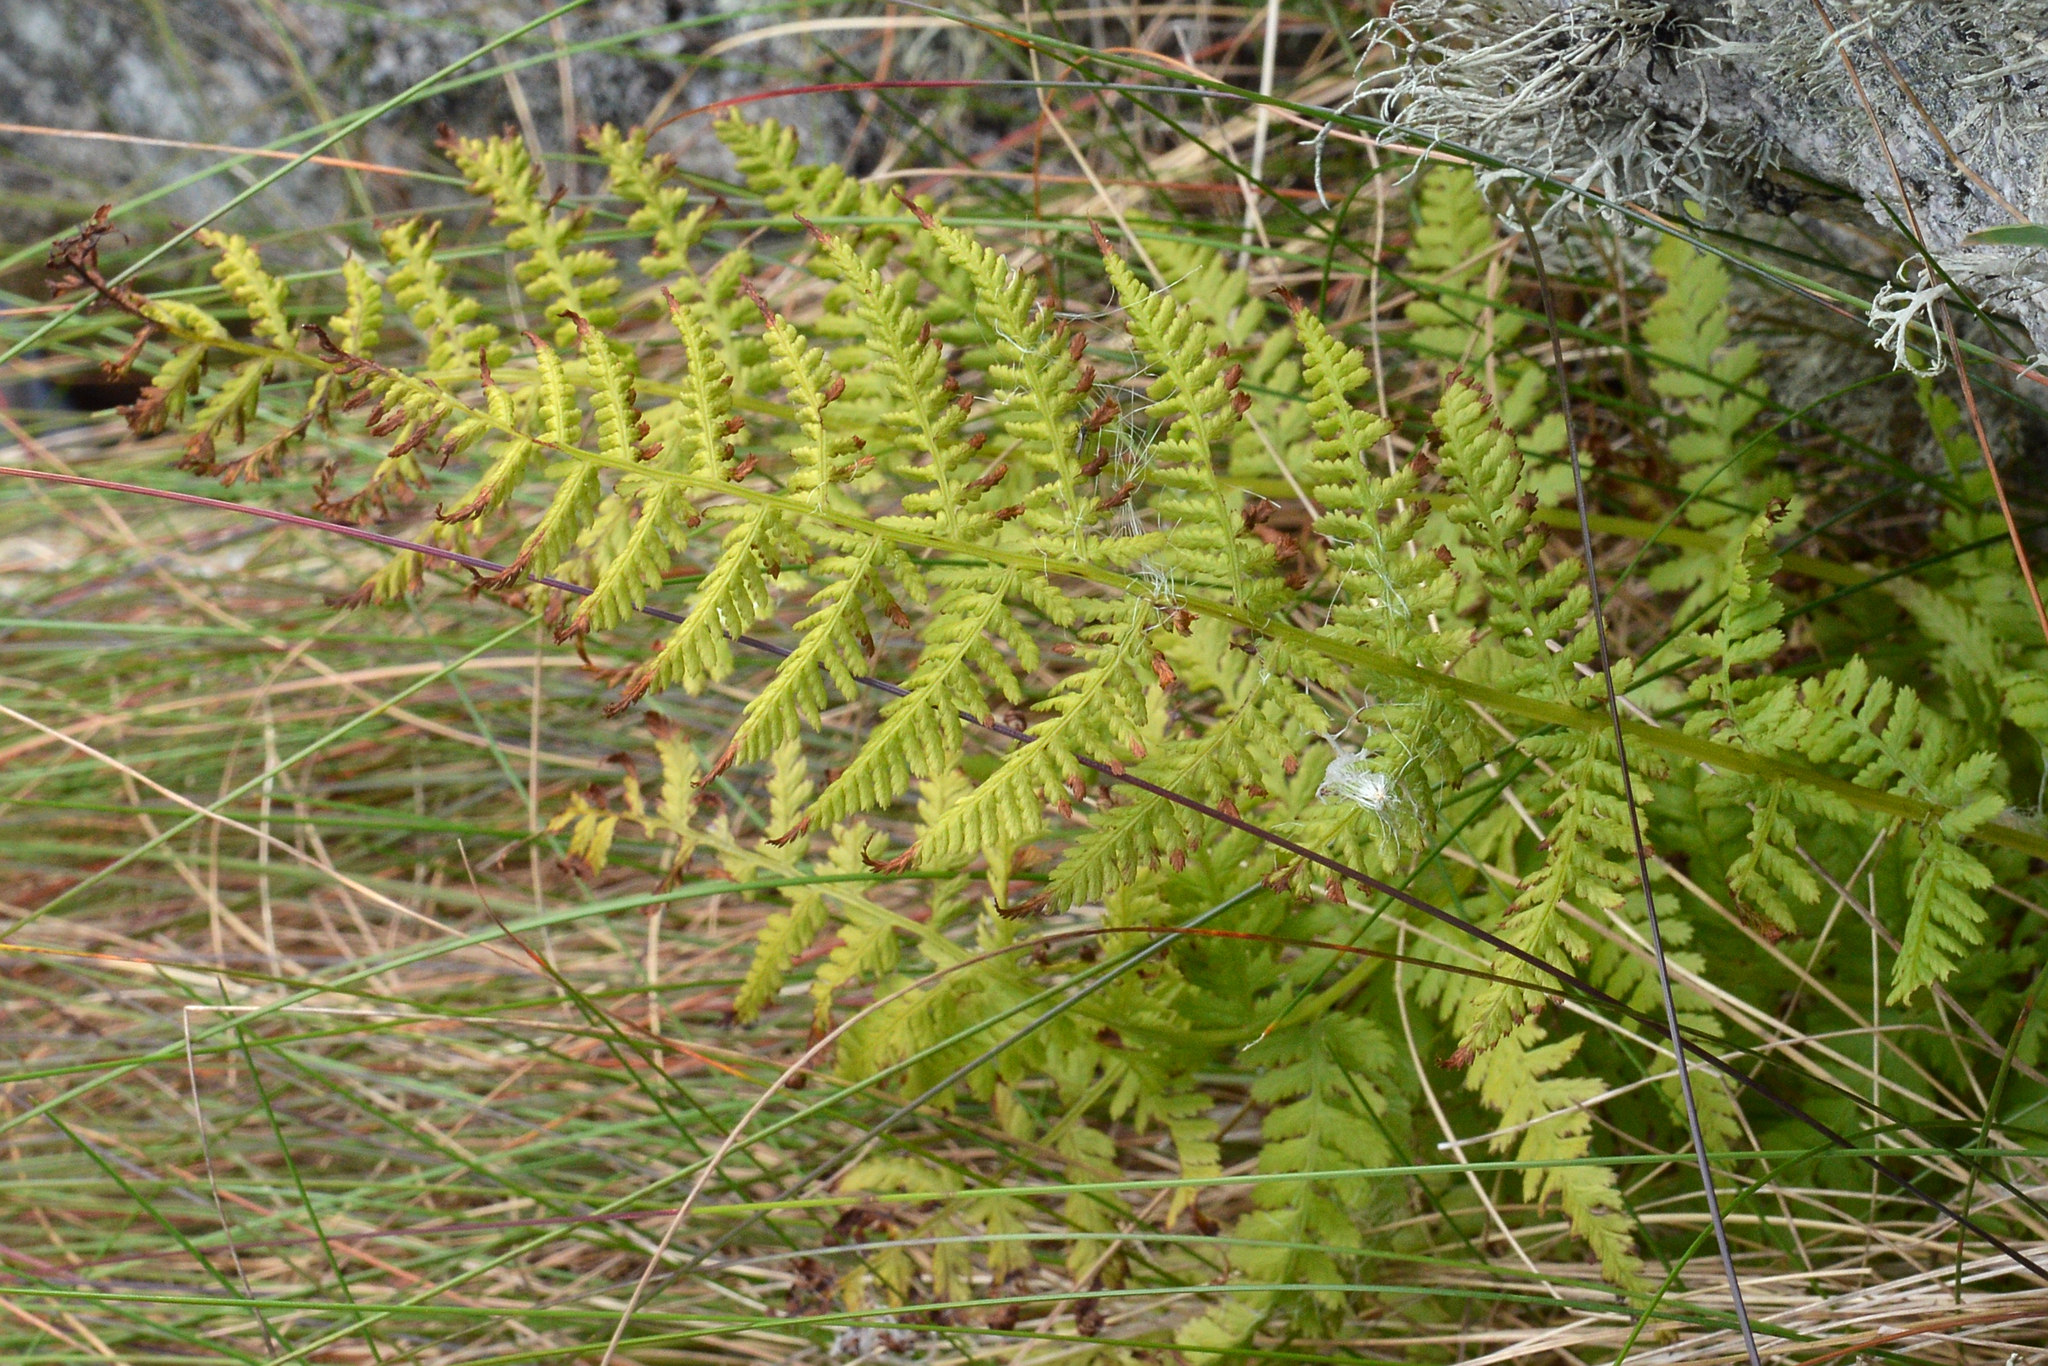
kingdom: Plantae
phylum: Tracheophyta
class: Polypodiopsida
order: Polypodiales
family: Athyriaceae
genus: Athyrium
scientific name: Athyrium filix-femina
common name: Lady fern
